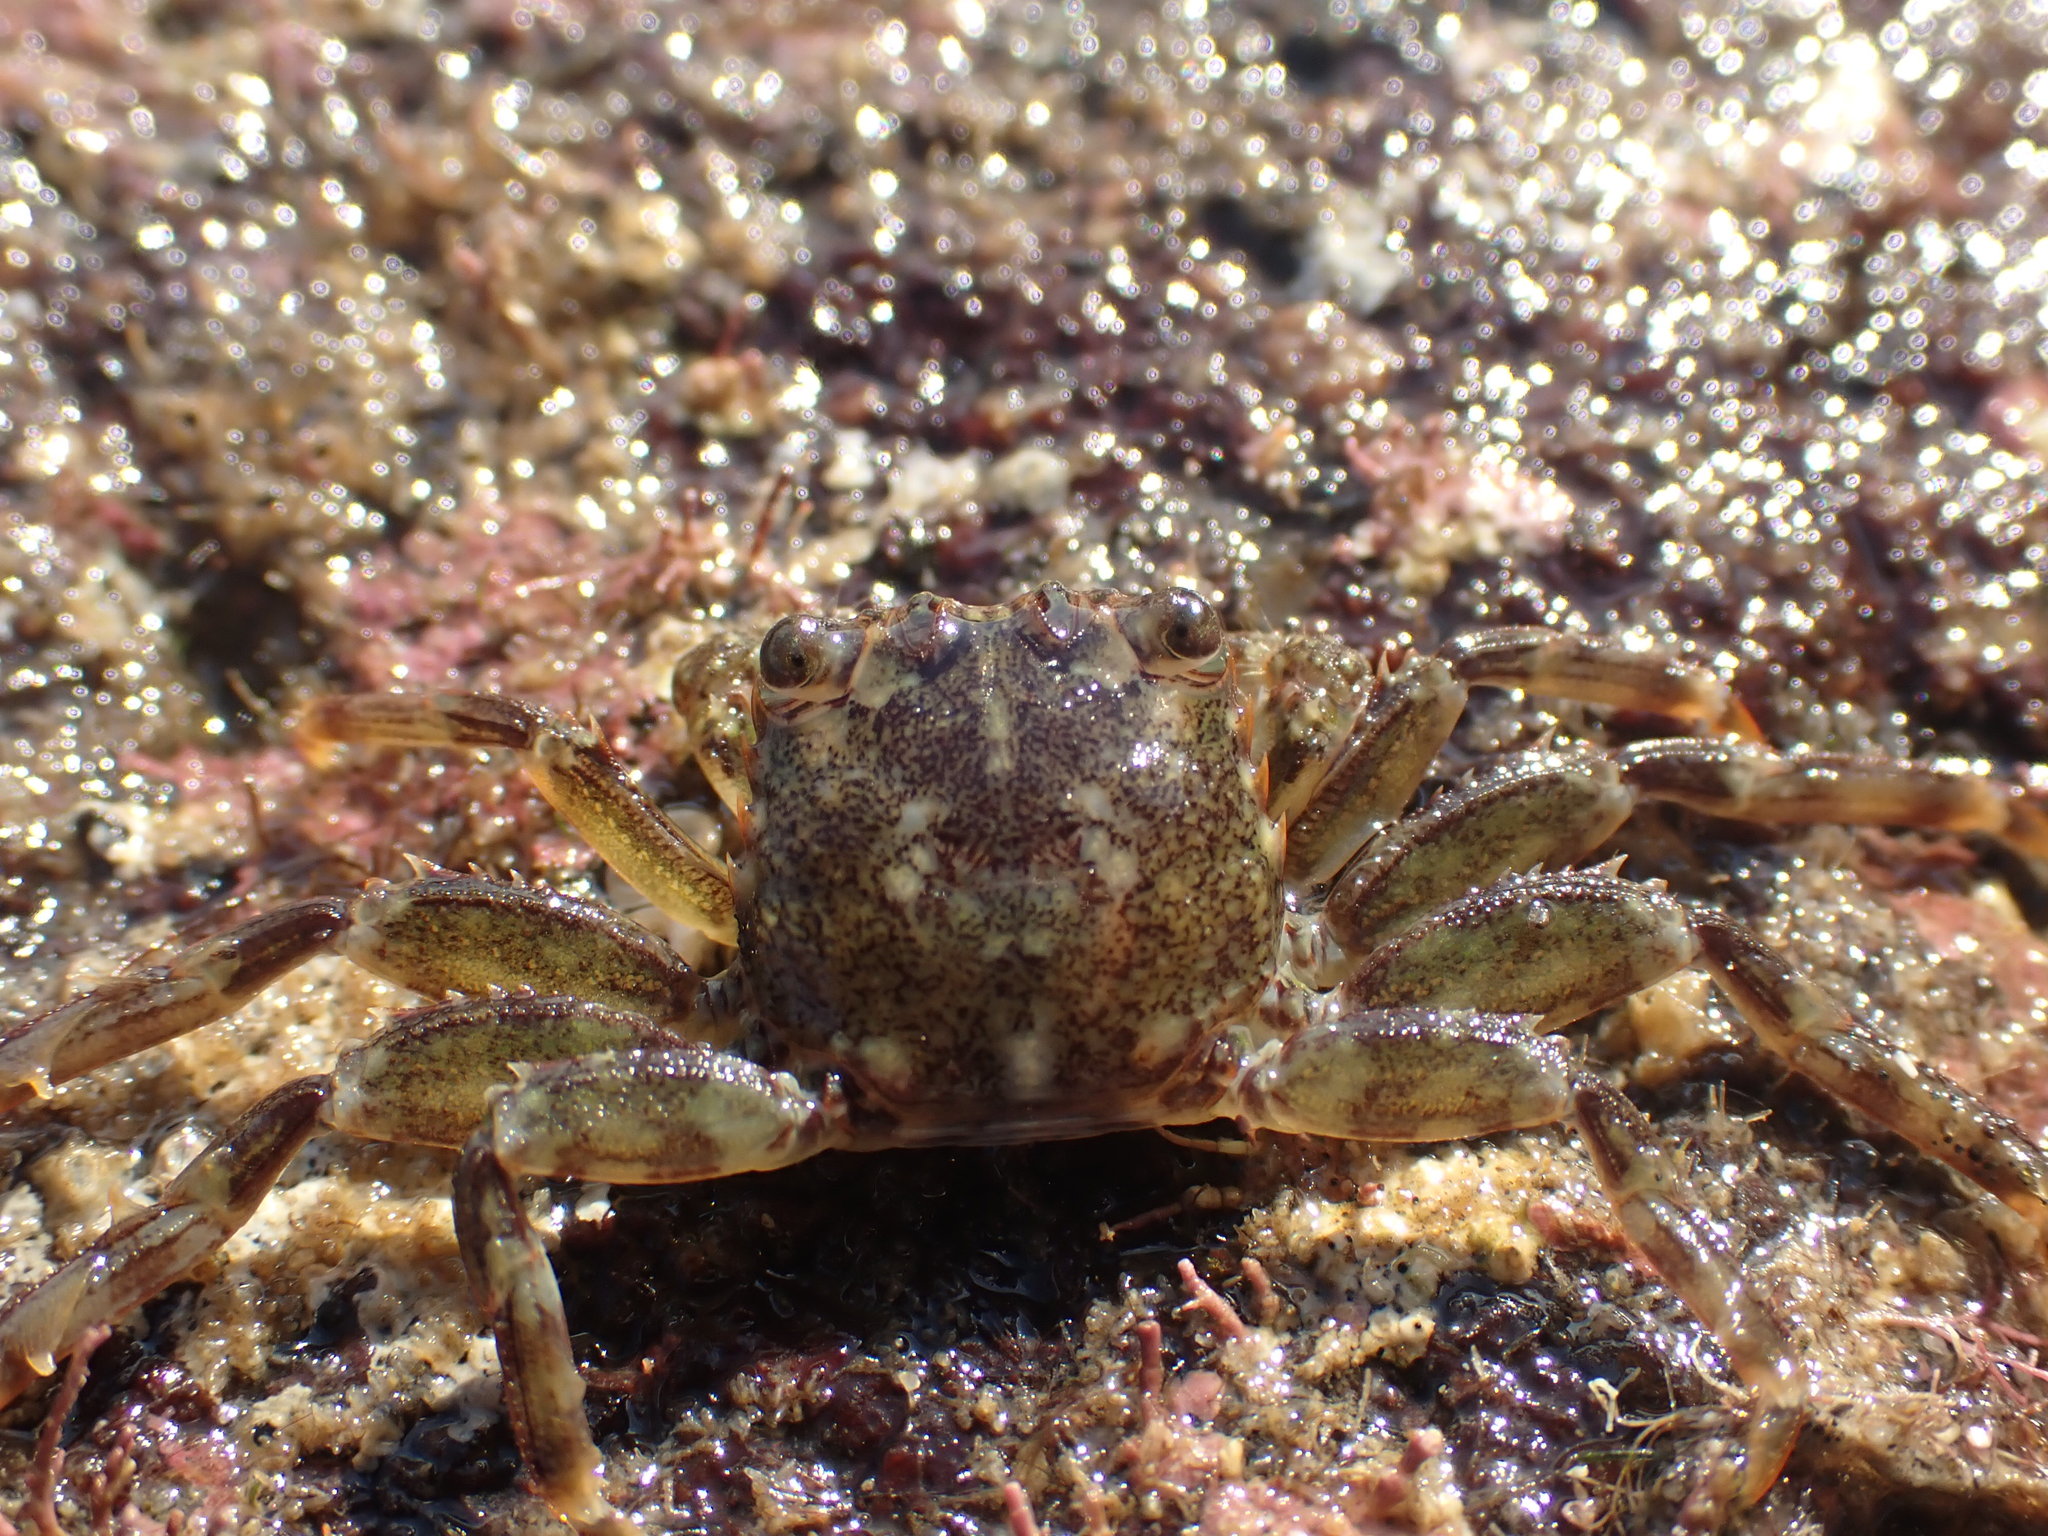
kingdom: Animalia
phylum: Arthropoda
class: Malacostraca
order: Decapoda
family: Plagusiidae
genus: Guinusia
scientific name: Guinusia chabrus
